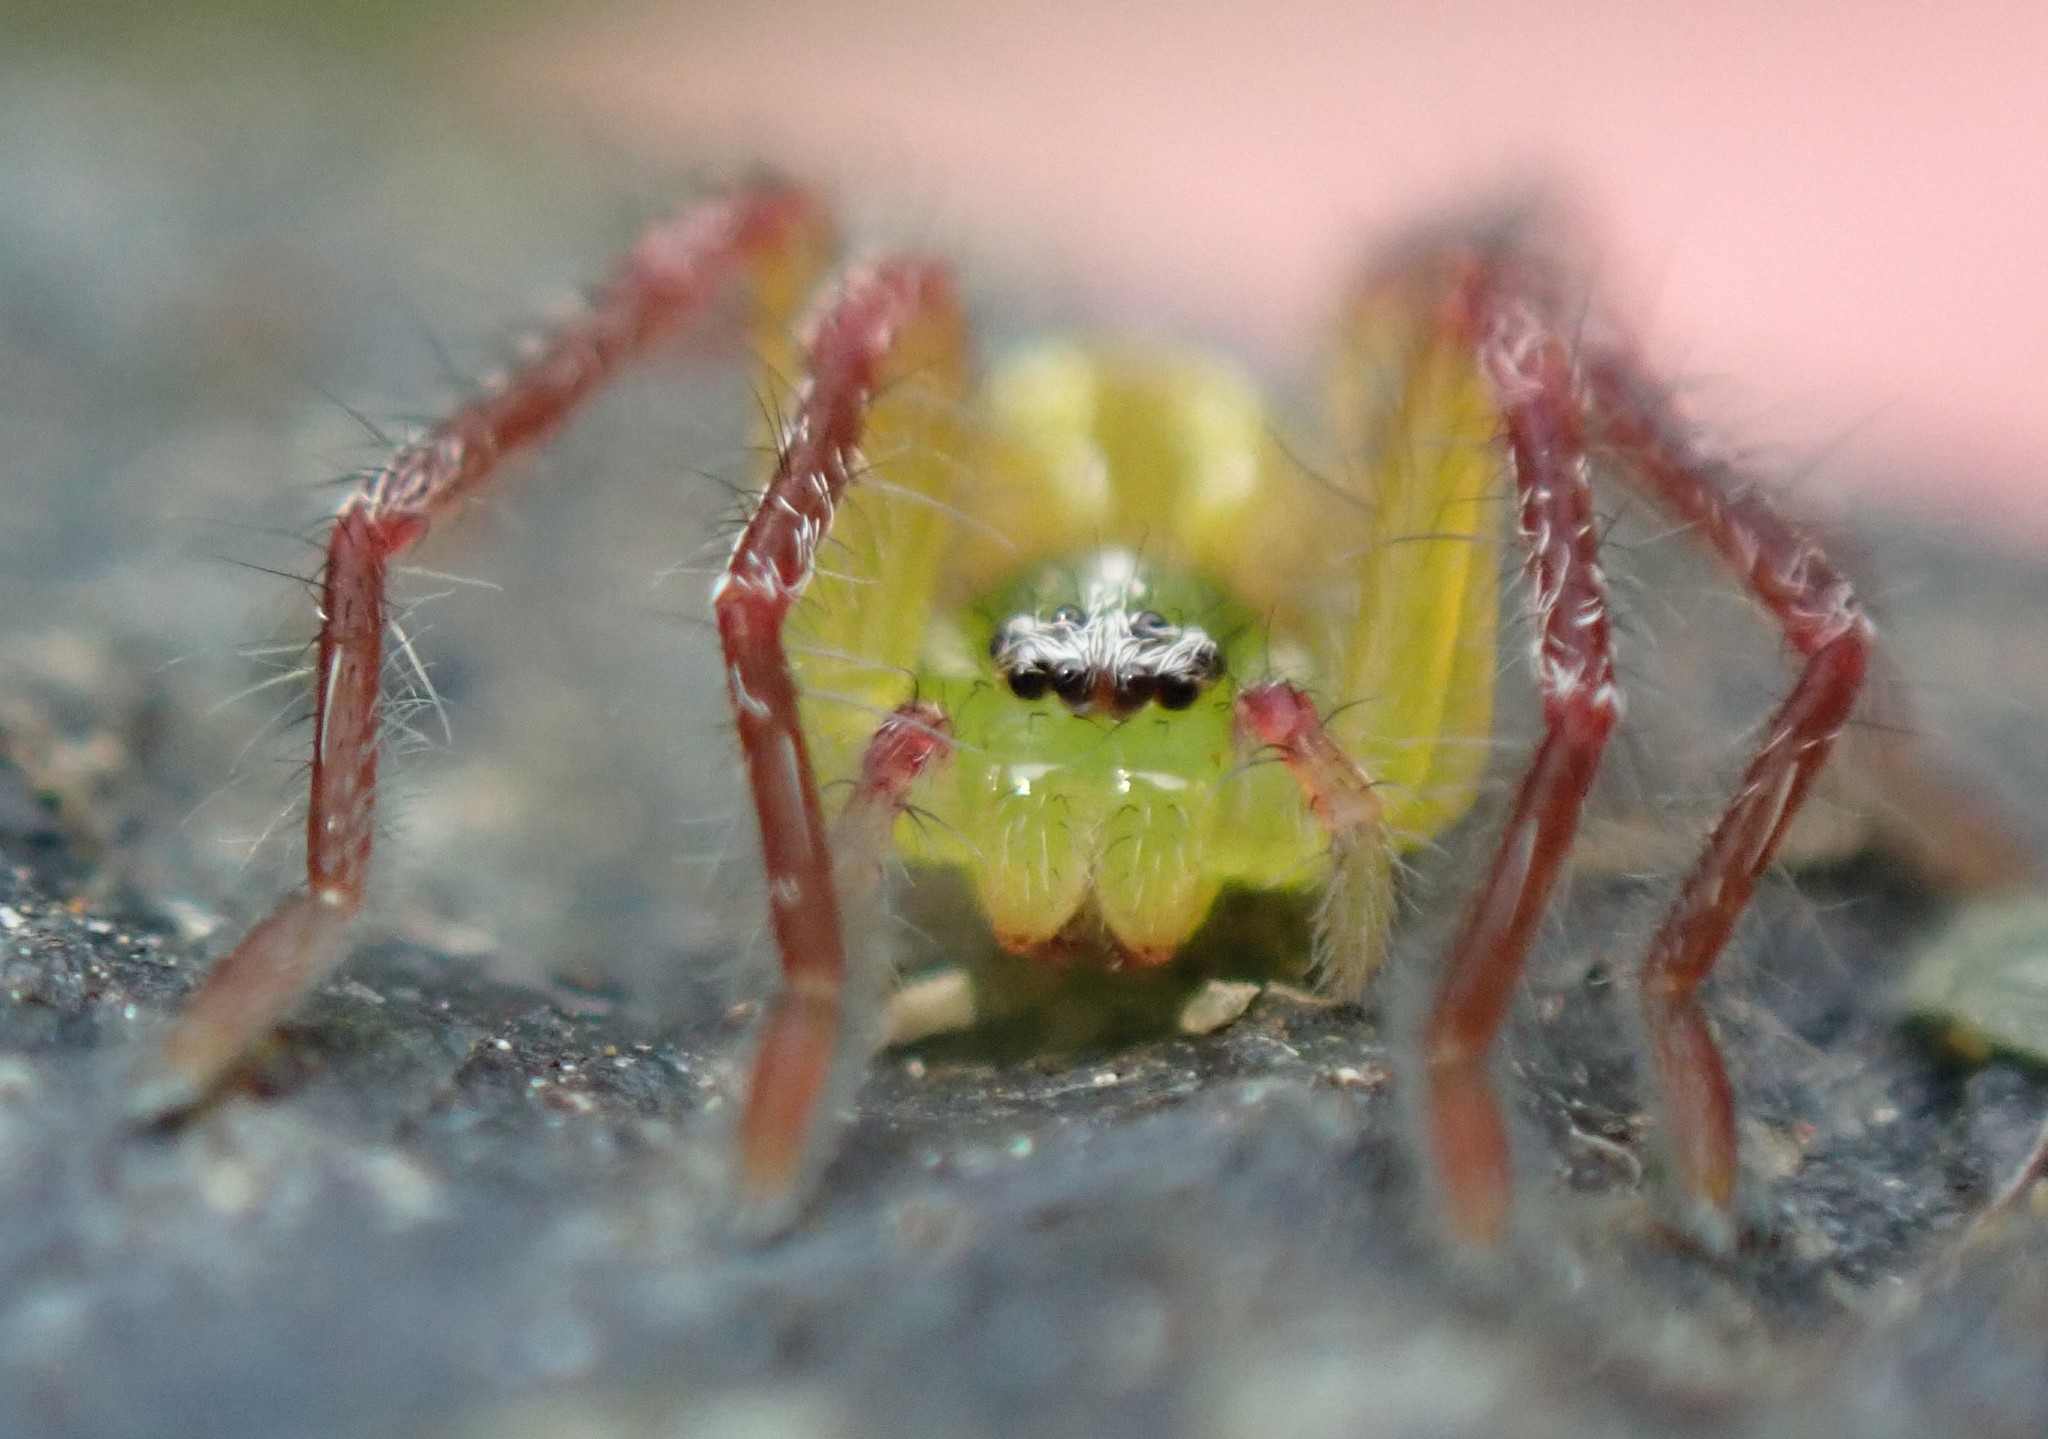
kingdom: Animalia
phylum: Arthropoda
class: Arachnida
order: Araneae
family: Sparassidae
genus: Neosparassus
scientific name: Neosparassus patellatus
